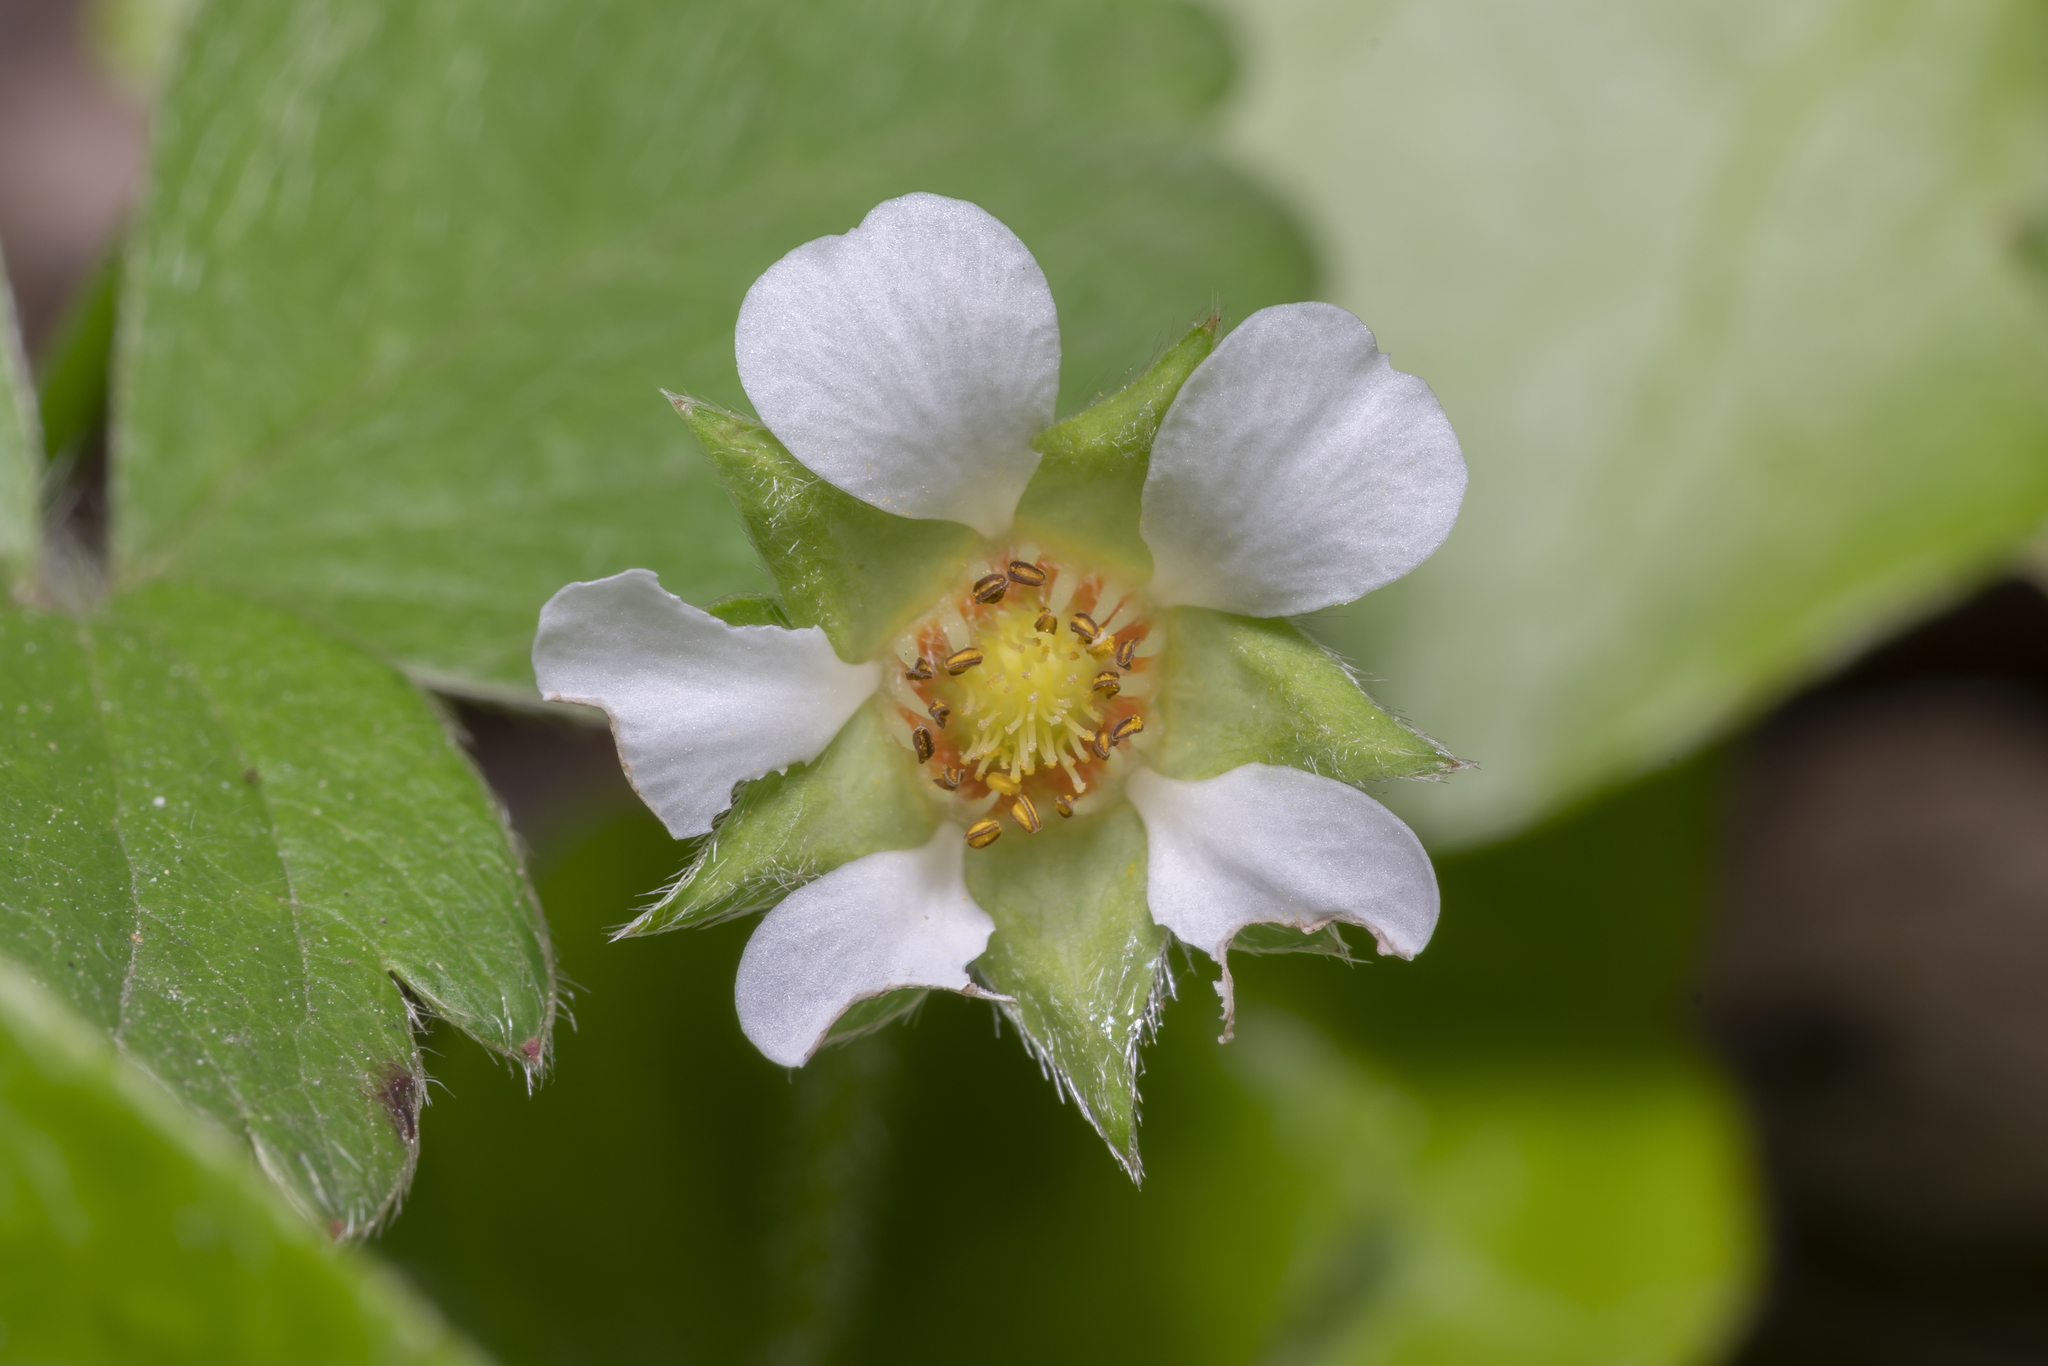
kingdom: Plantae
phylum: Tracheophyta
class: Magnoliopsida
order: Rosales
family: Rosaceae
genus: Potentilla
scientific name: Potentilla sterilis
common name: Barren strawberry
